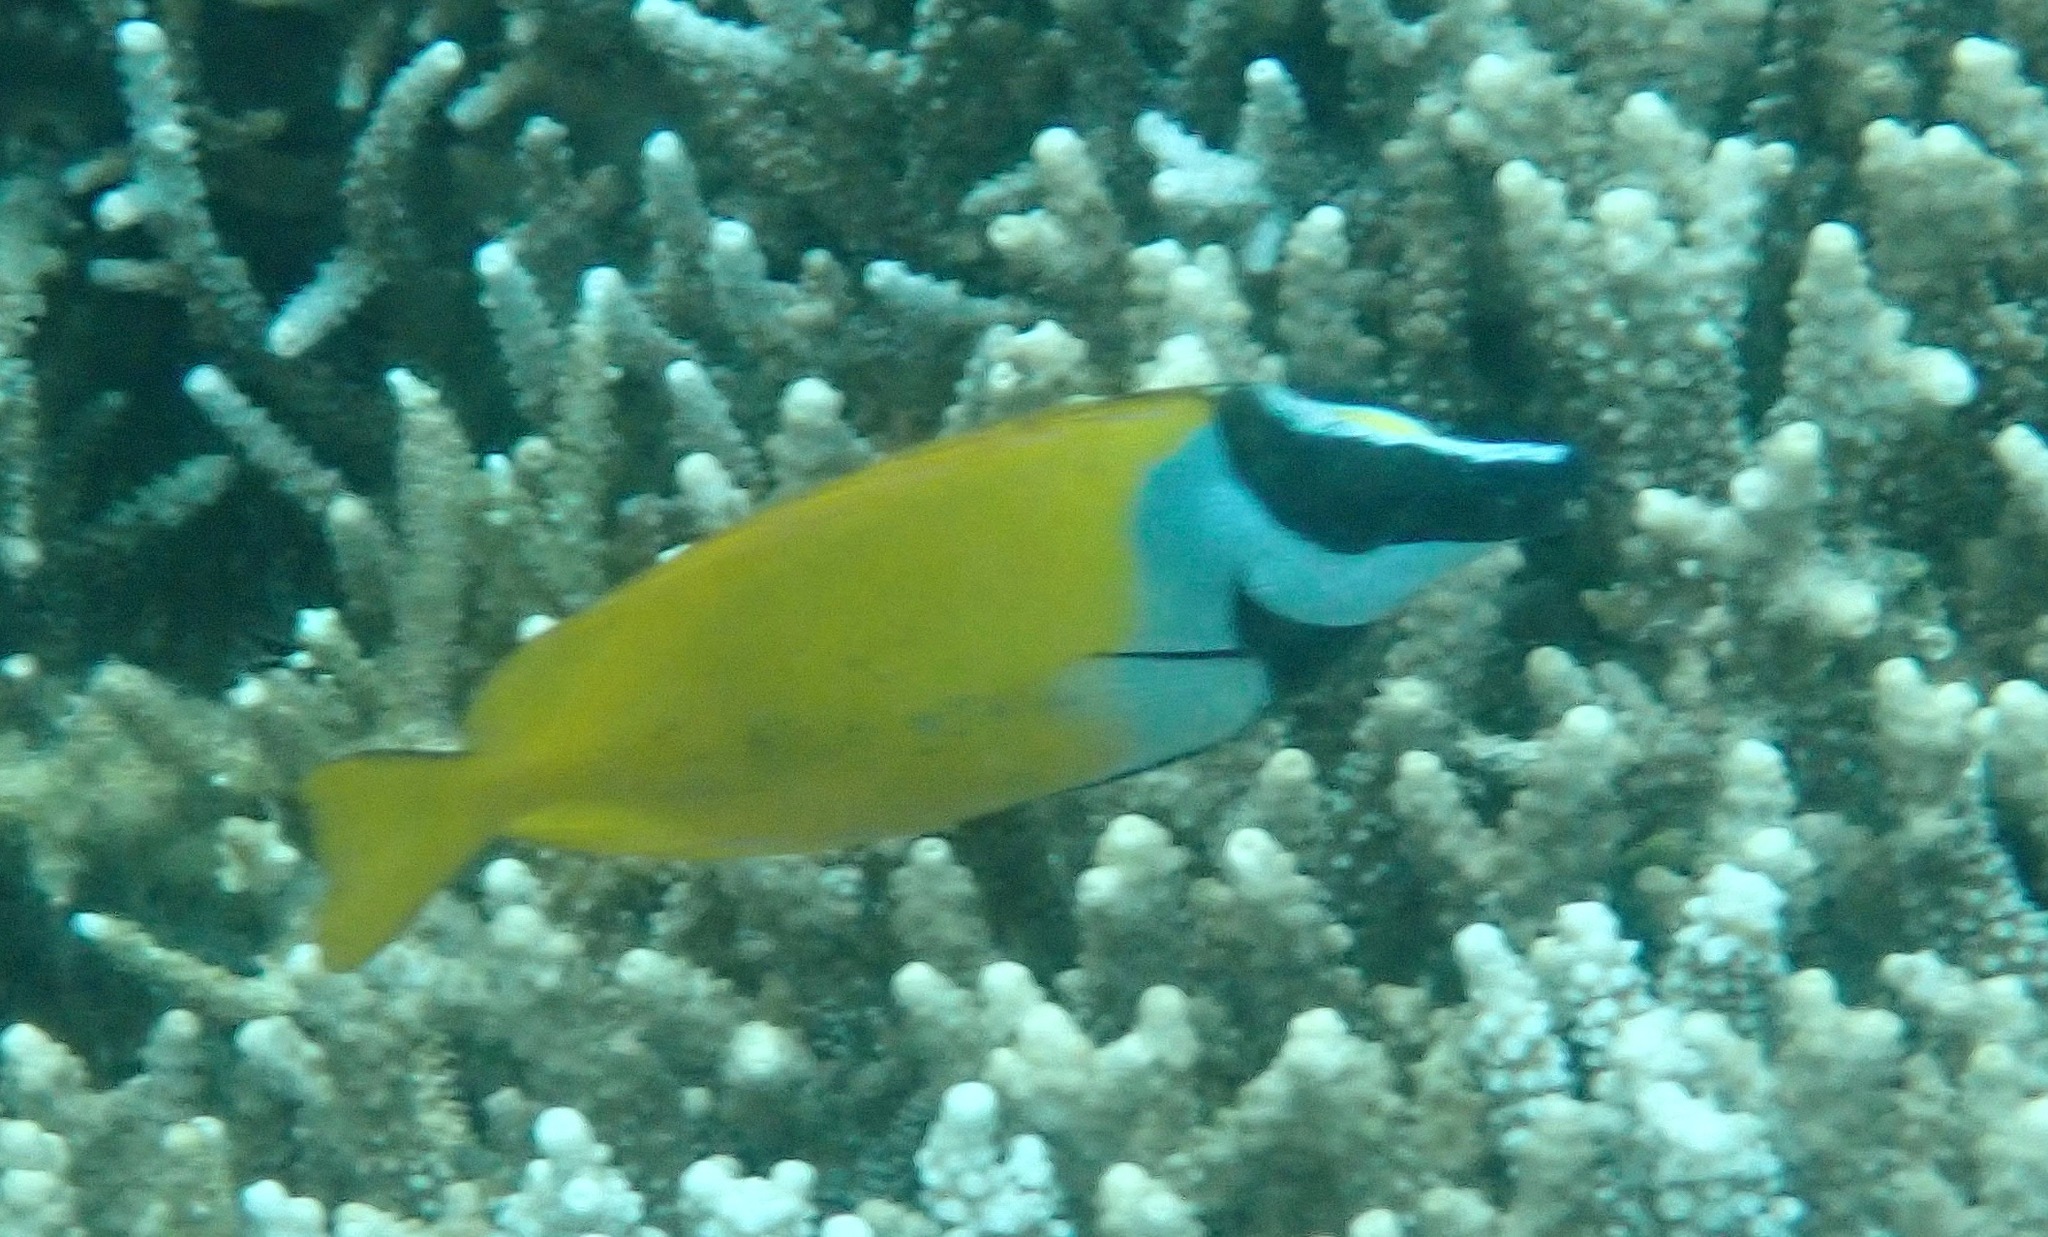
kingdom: Animalia
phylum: Chordata
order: Perciformes
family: Siganidae
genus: Siganus
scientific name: Siganus vulpinus
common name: Foxface
